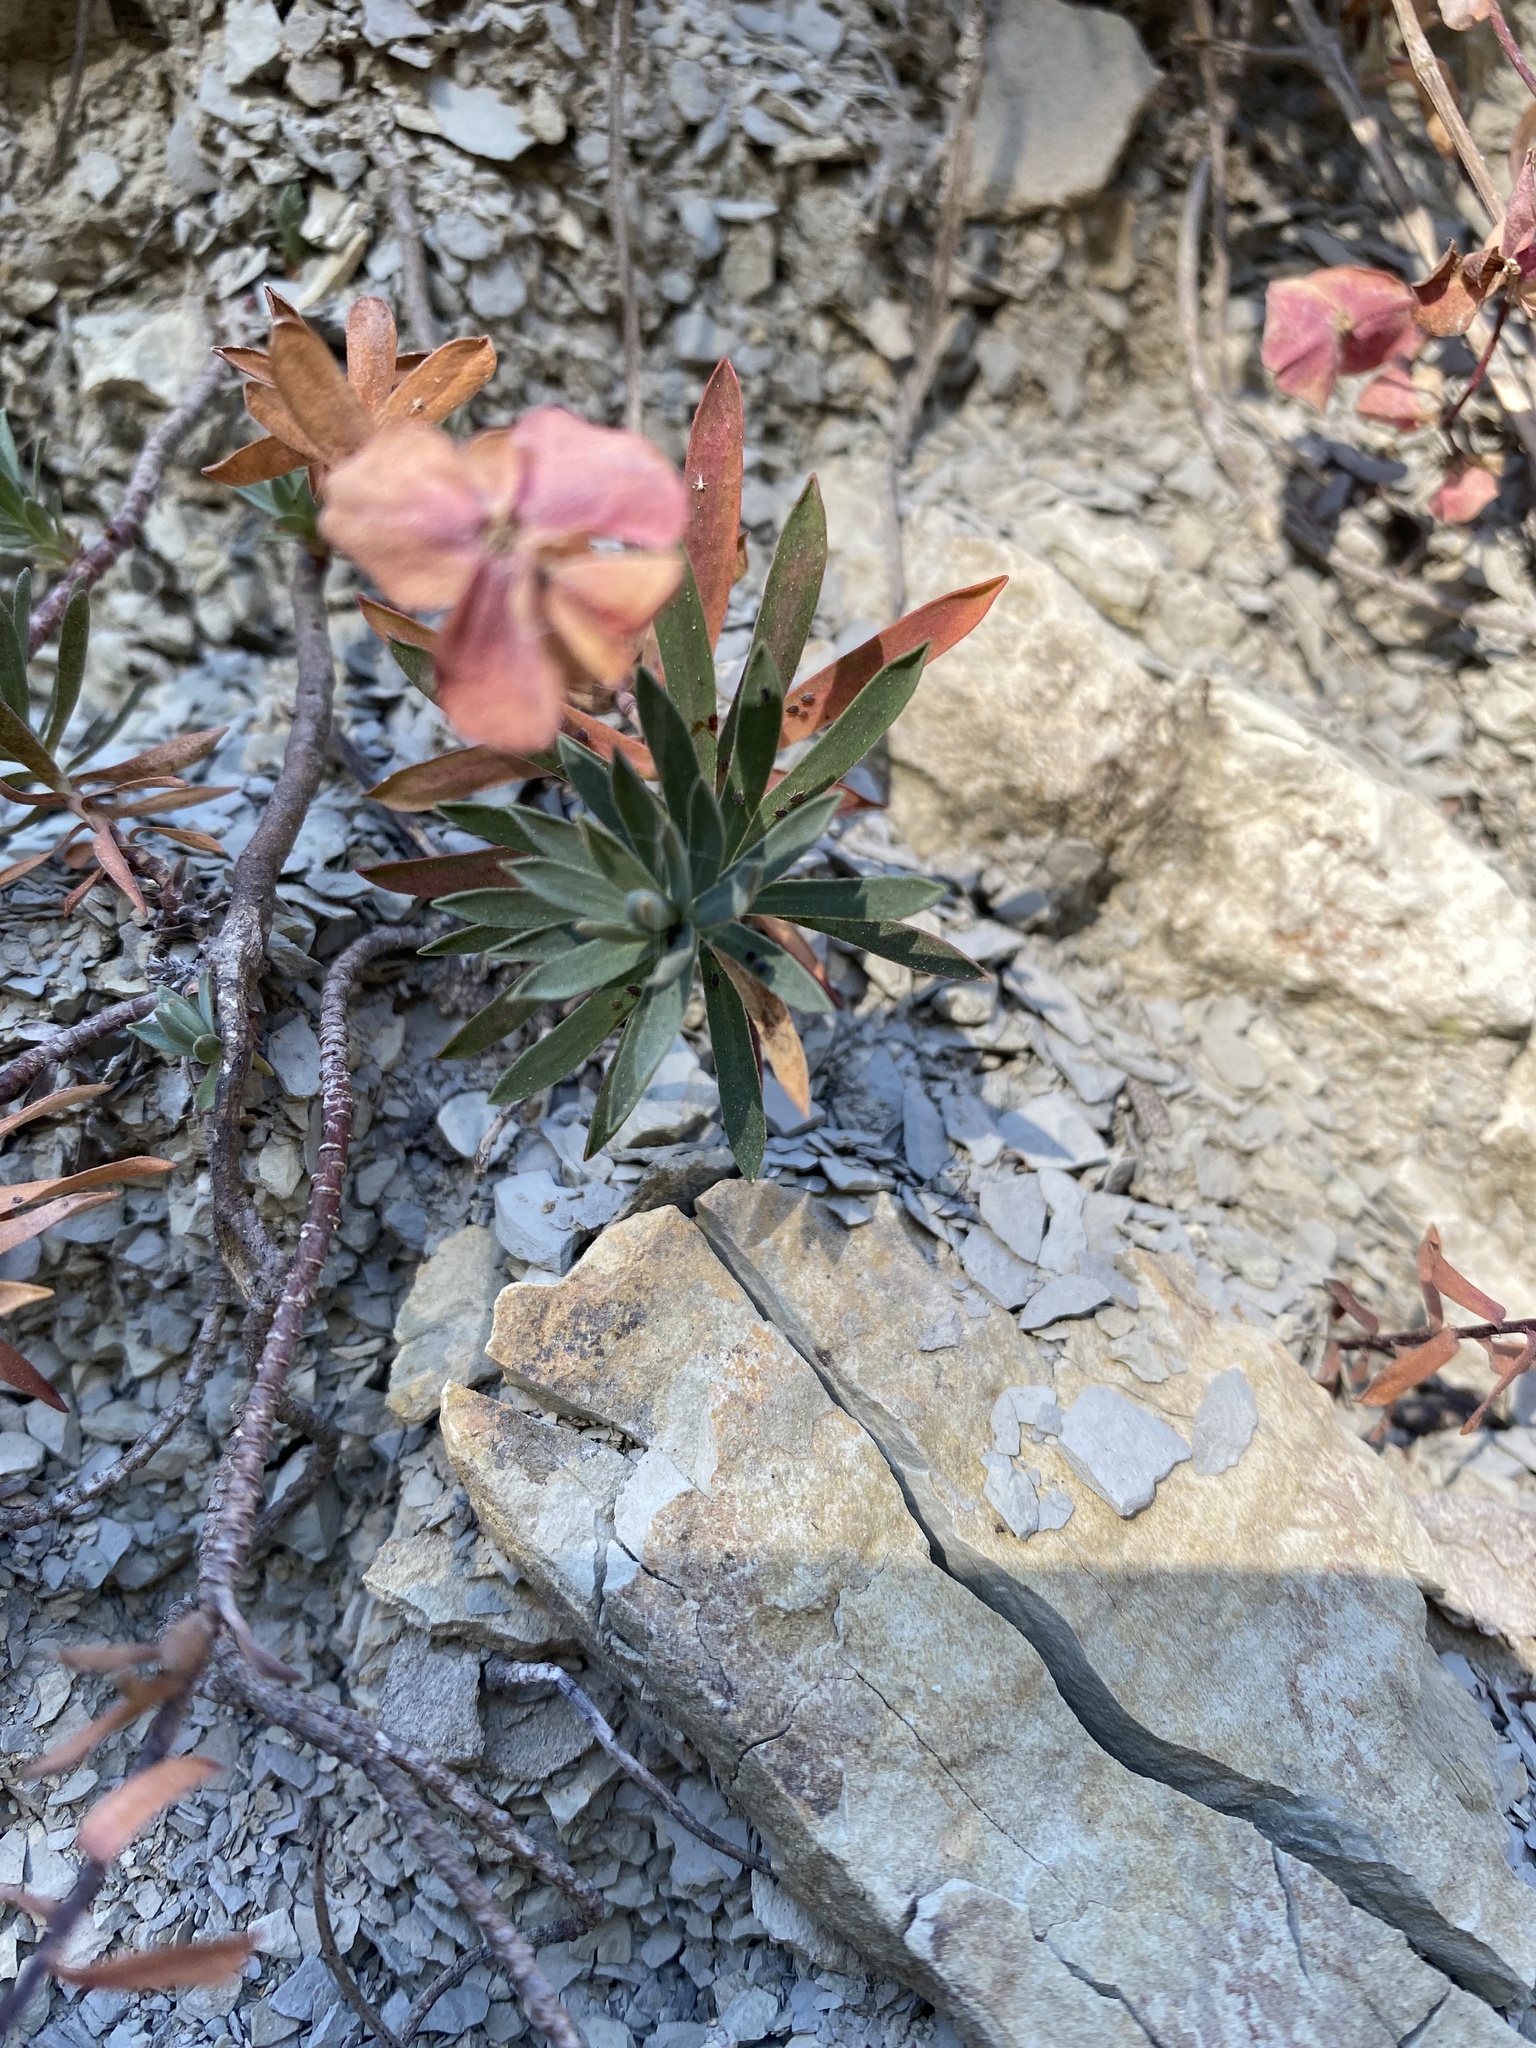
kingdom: Plantae
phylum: Tracheophyta
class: Magnoliopsida
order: Malpighiales
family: Euphorbiaceae
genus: Euphorbia
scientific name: Euphorbia petrophila
